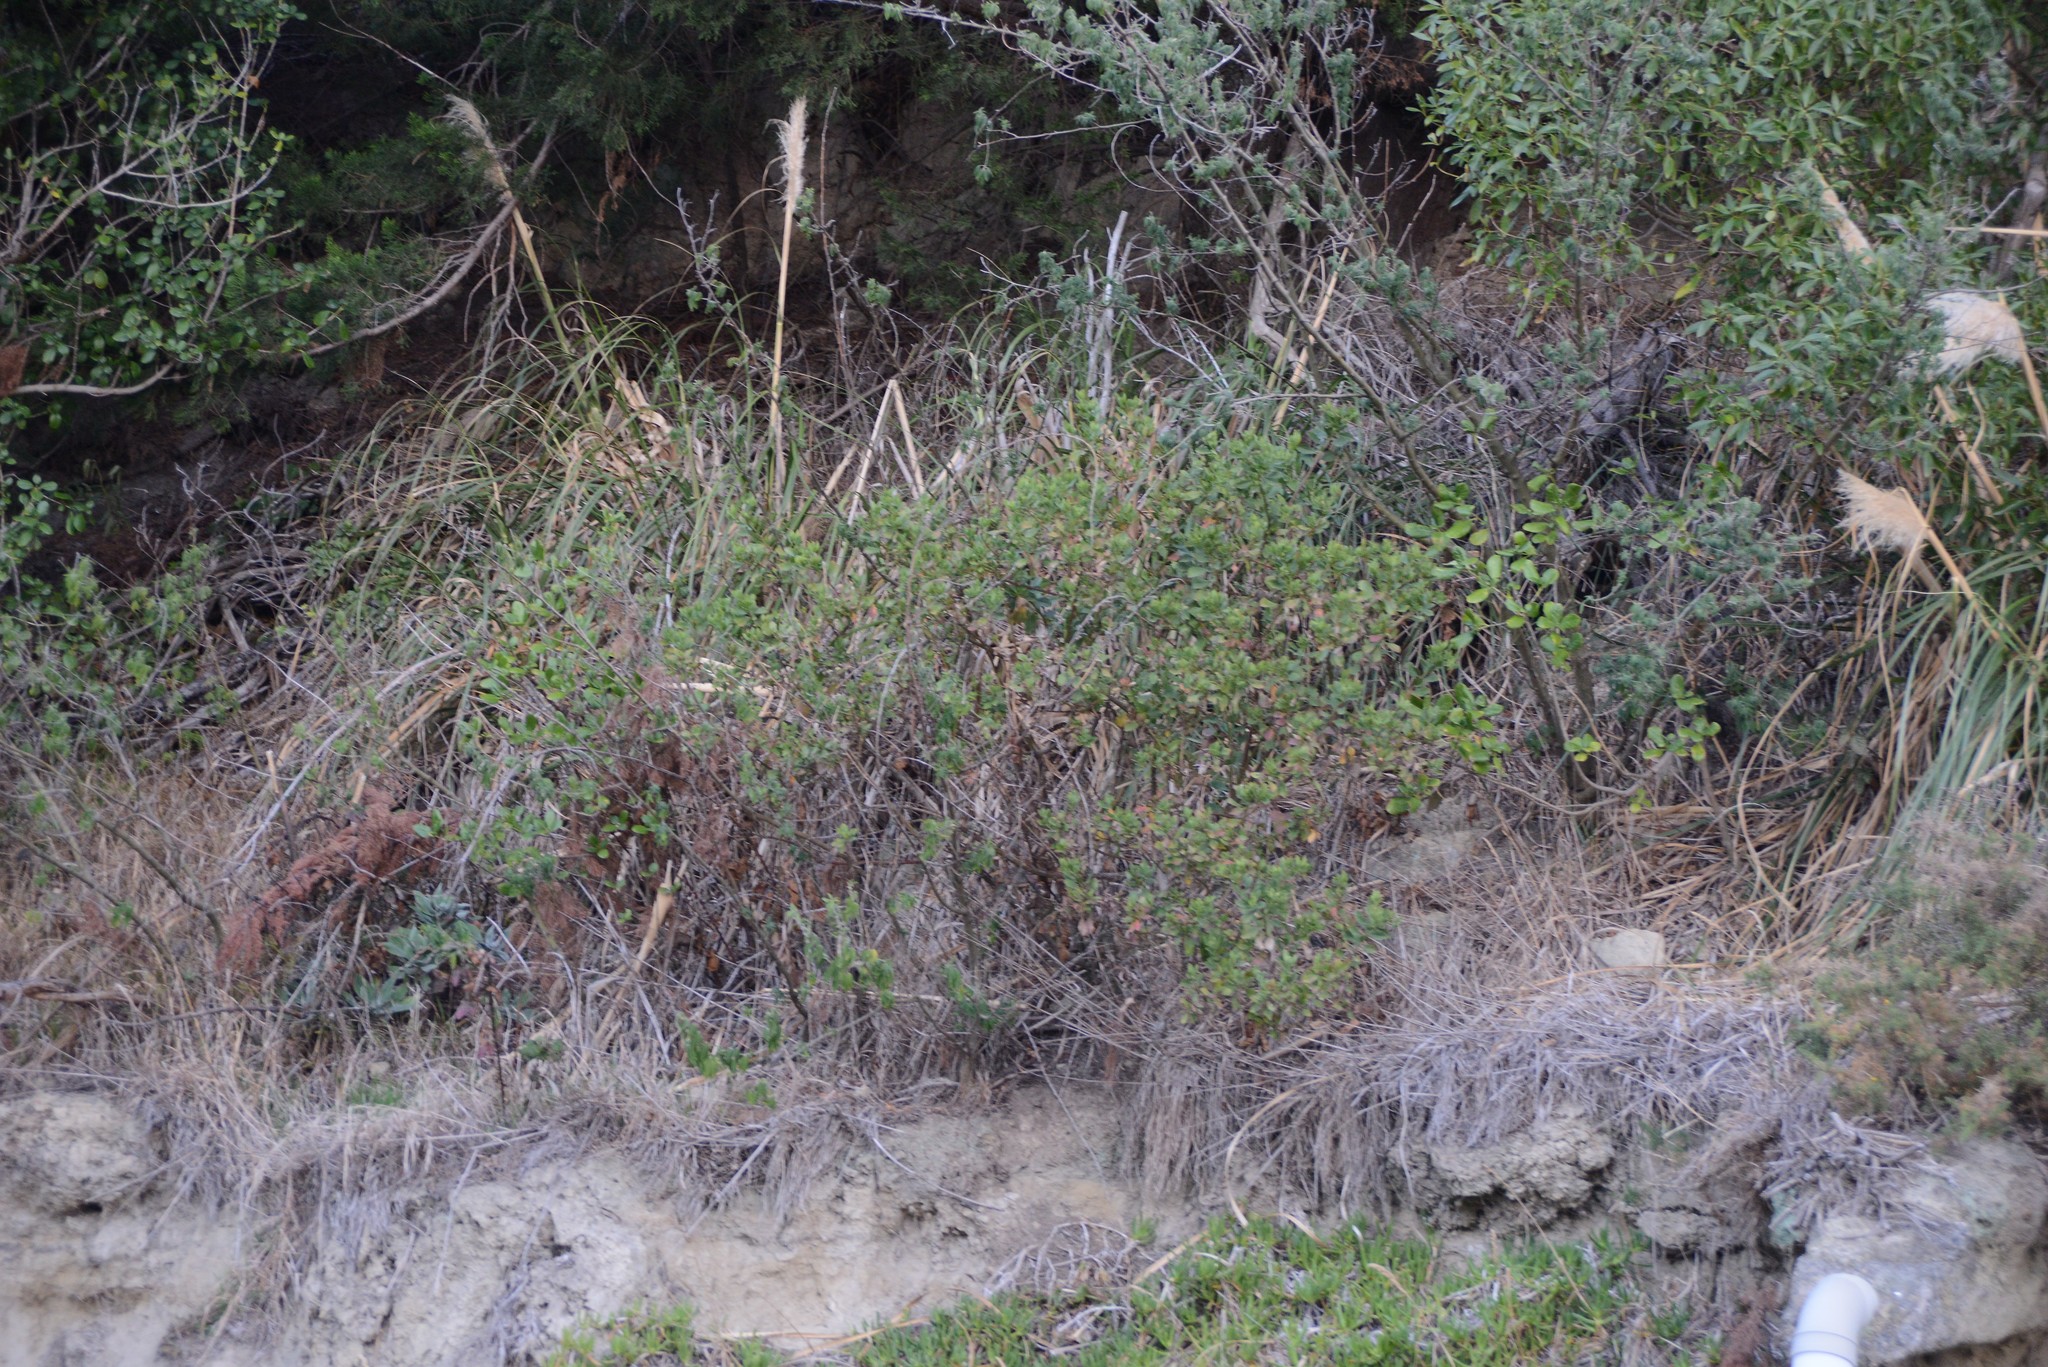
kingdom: Plantae
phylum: Tracheophyta
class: Magnoliopsida
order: Asterales
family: Asteraceae
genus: Osteospermum
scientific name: Osteospermum moniliferum
